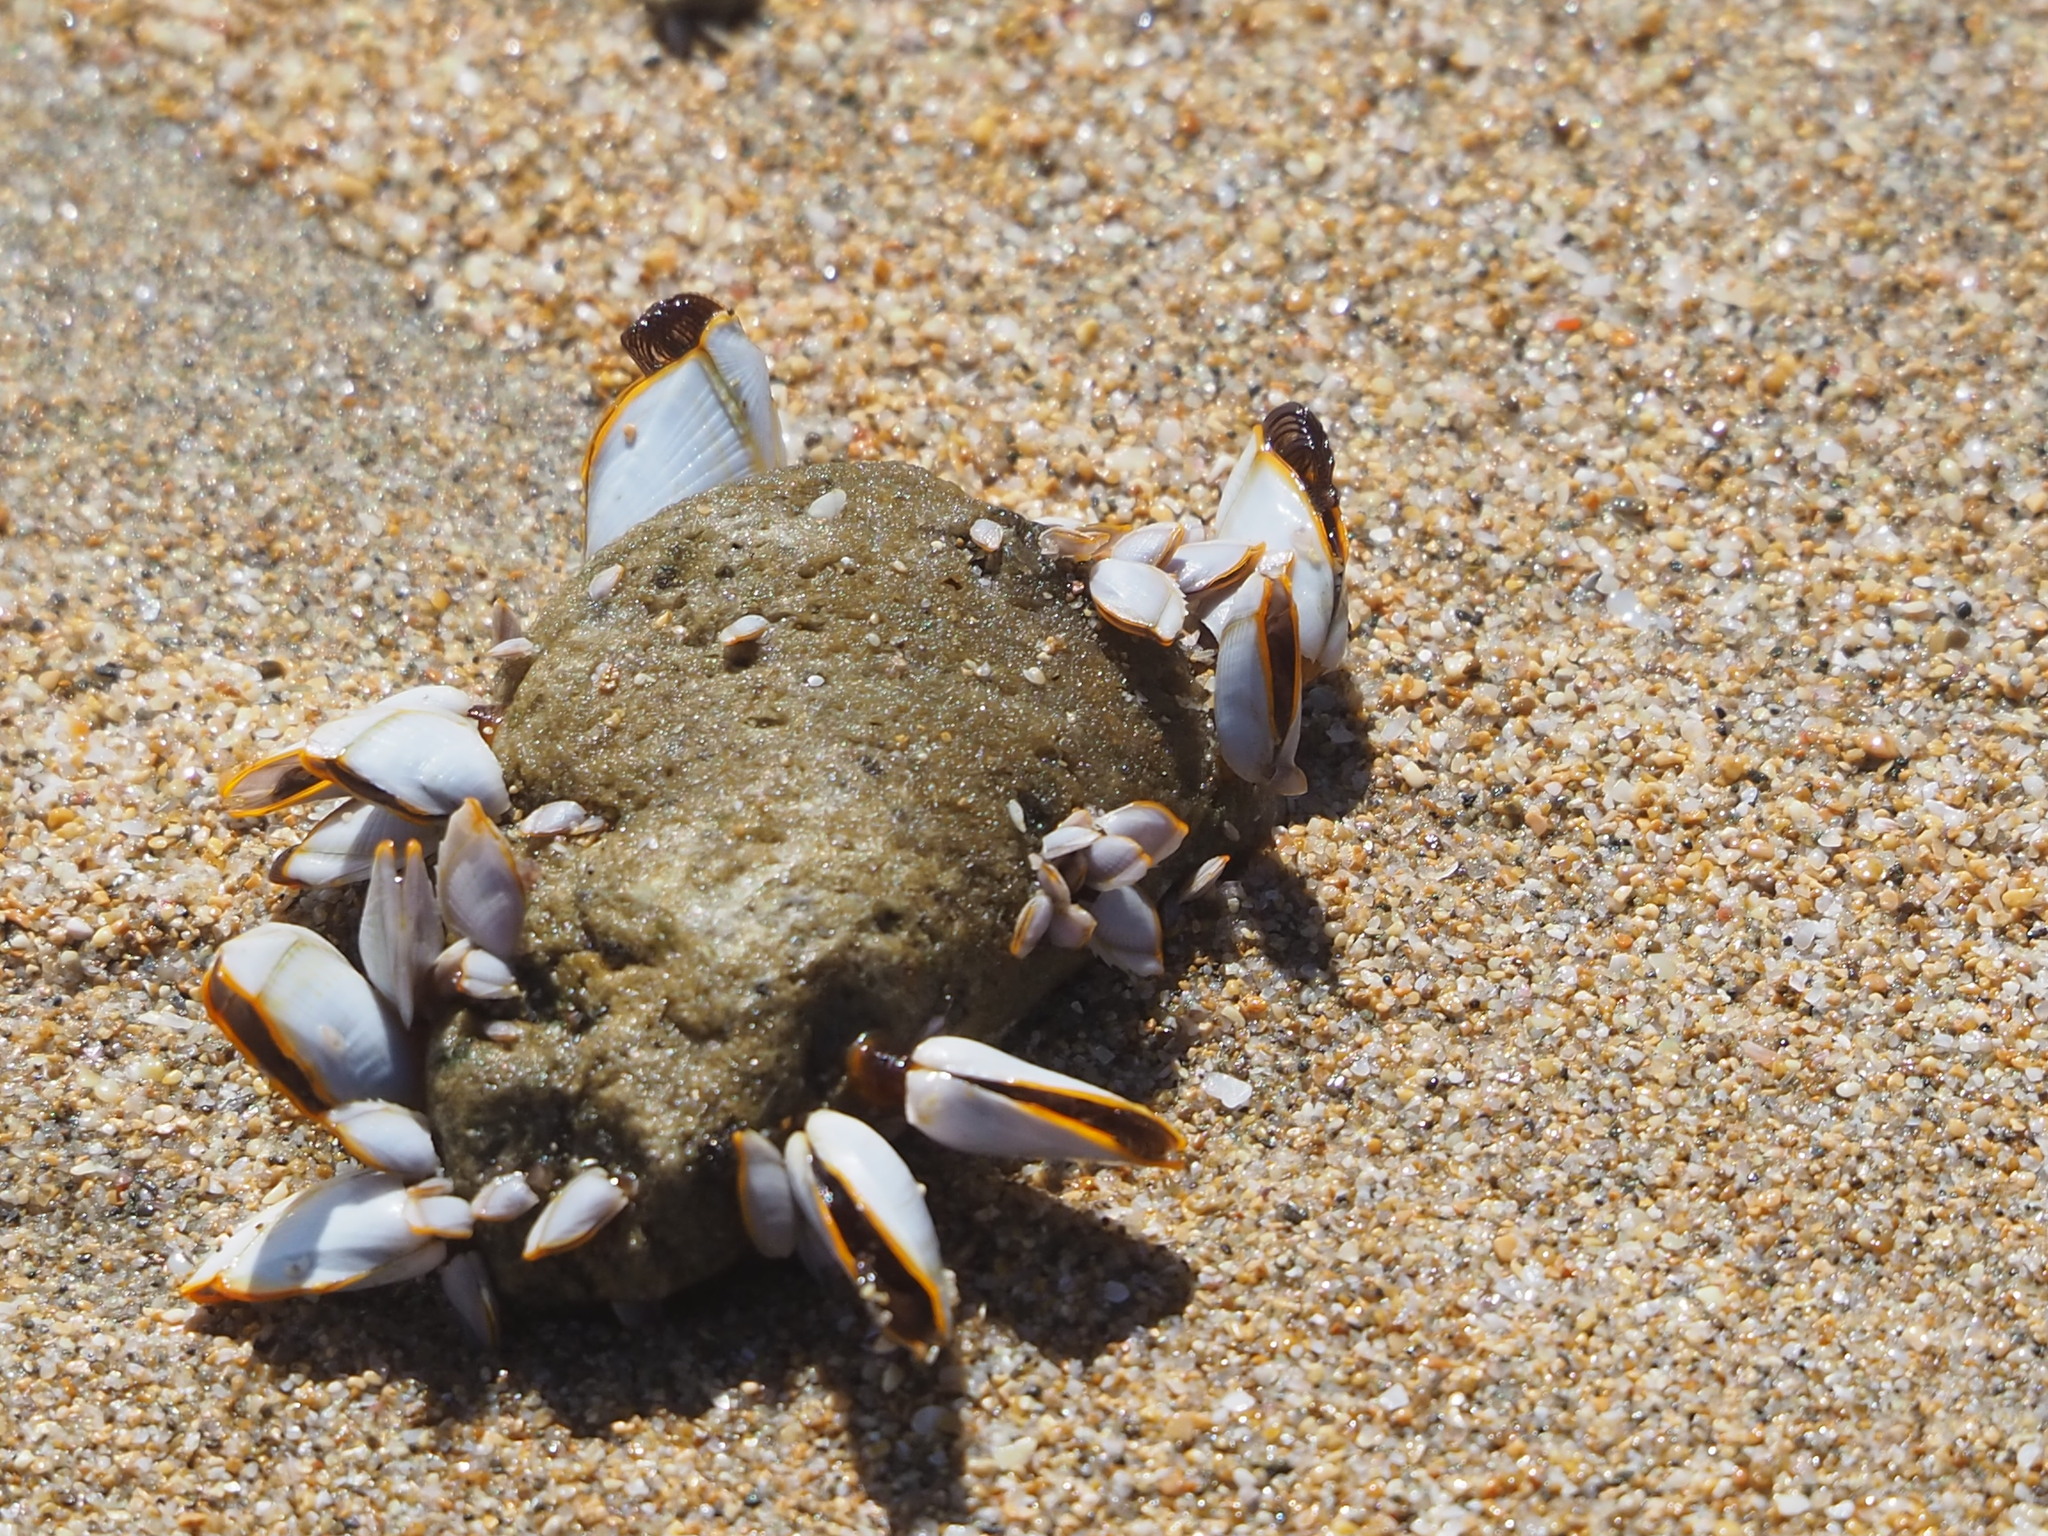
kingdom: Animalia
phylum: Arthropoda
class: Maxillopoda
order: Pedunculata
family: Lepadidae
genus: Lepas
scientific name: Lepas anserifera
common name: Goose barnacle
